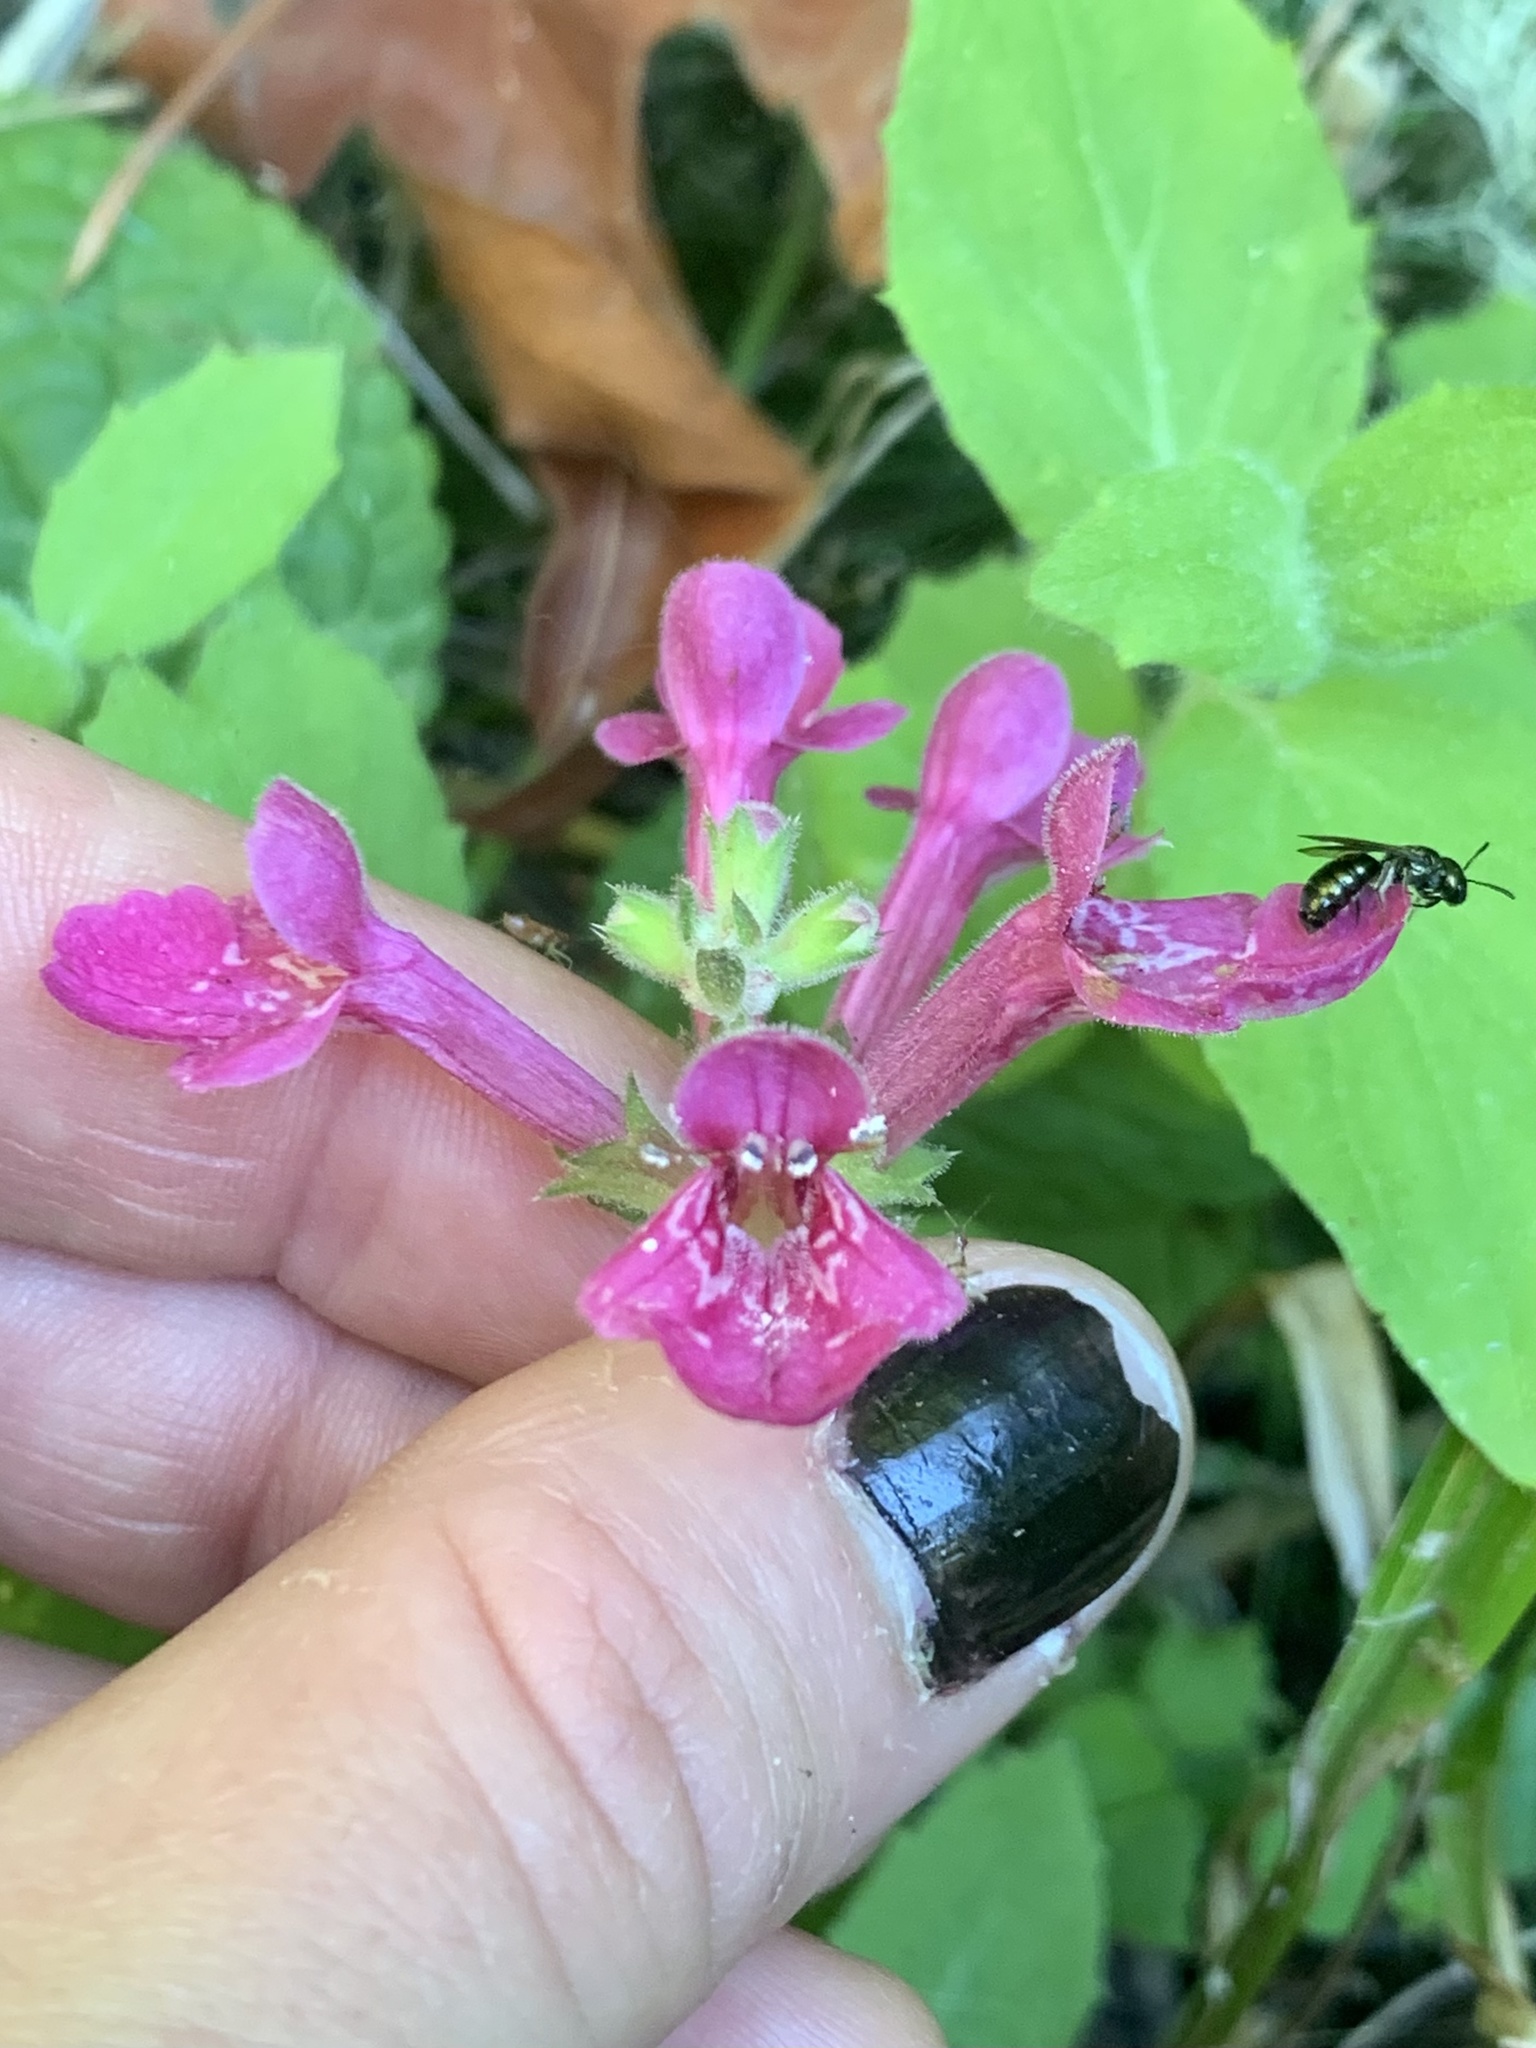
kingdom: Plantae
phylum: Tracheophyta
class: Magnoliopsida
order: Lamiales
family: Lamiaceae
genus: Stachys
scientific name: Stachys chamissonis
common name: Coastal hedge-nettle
